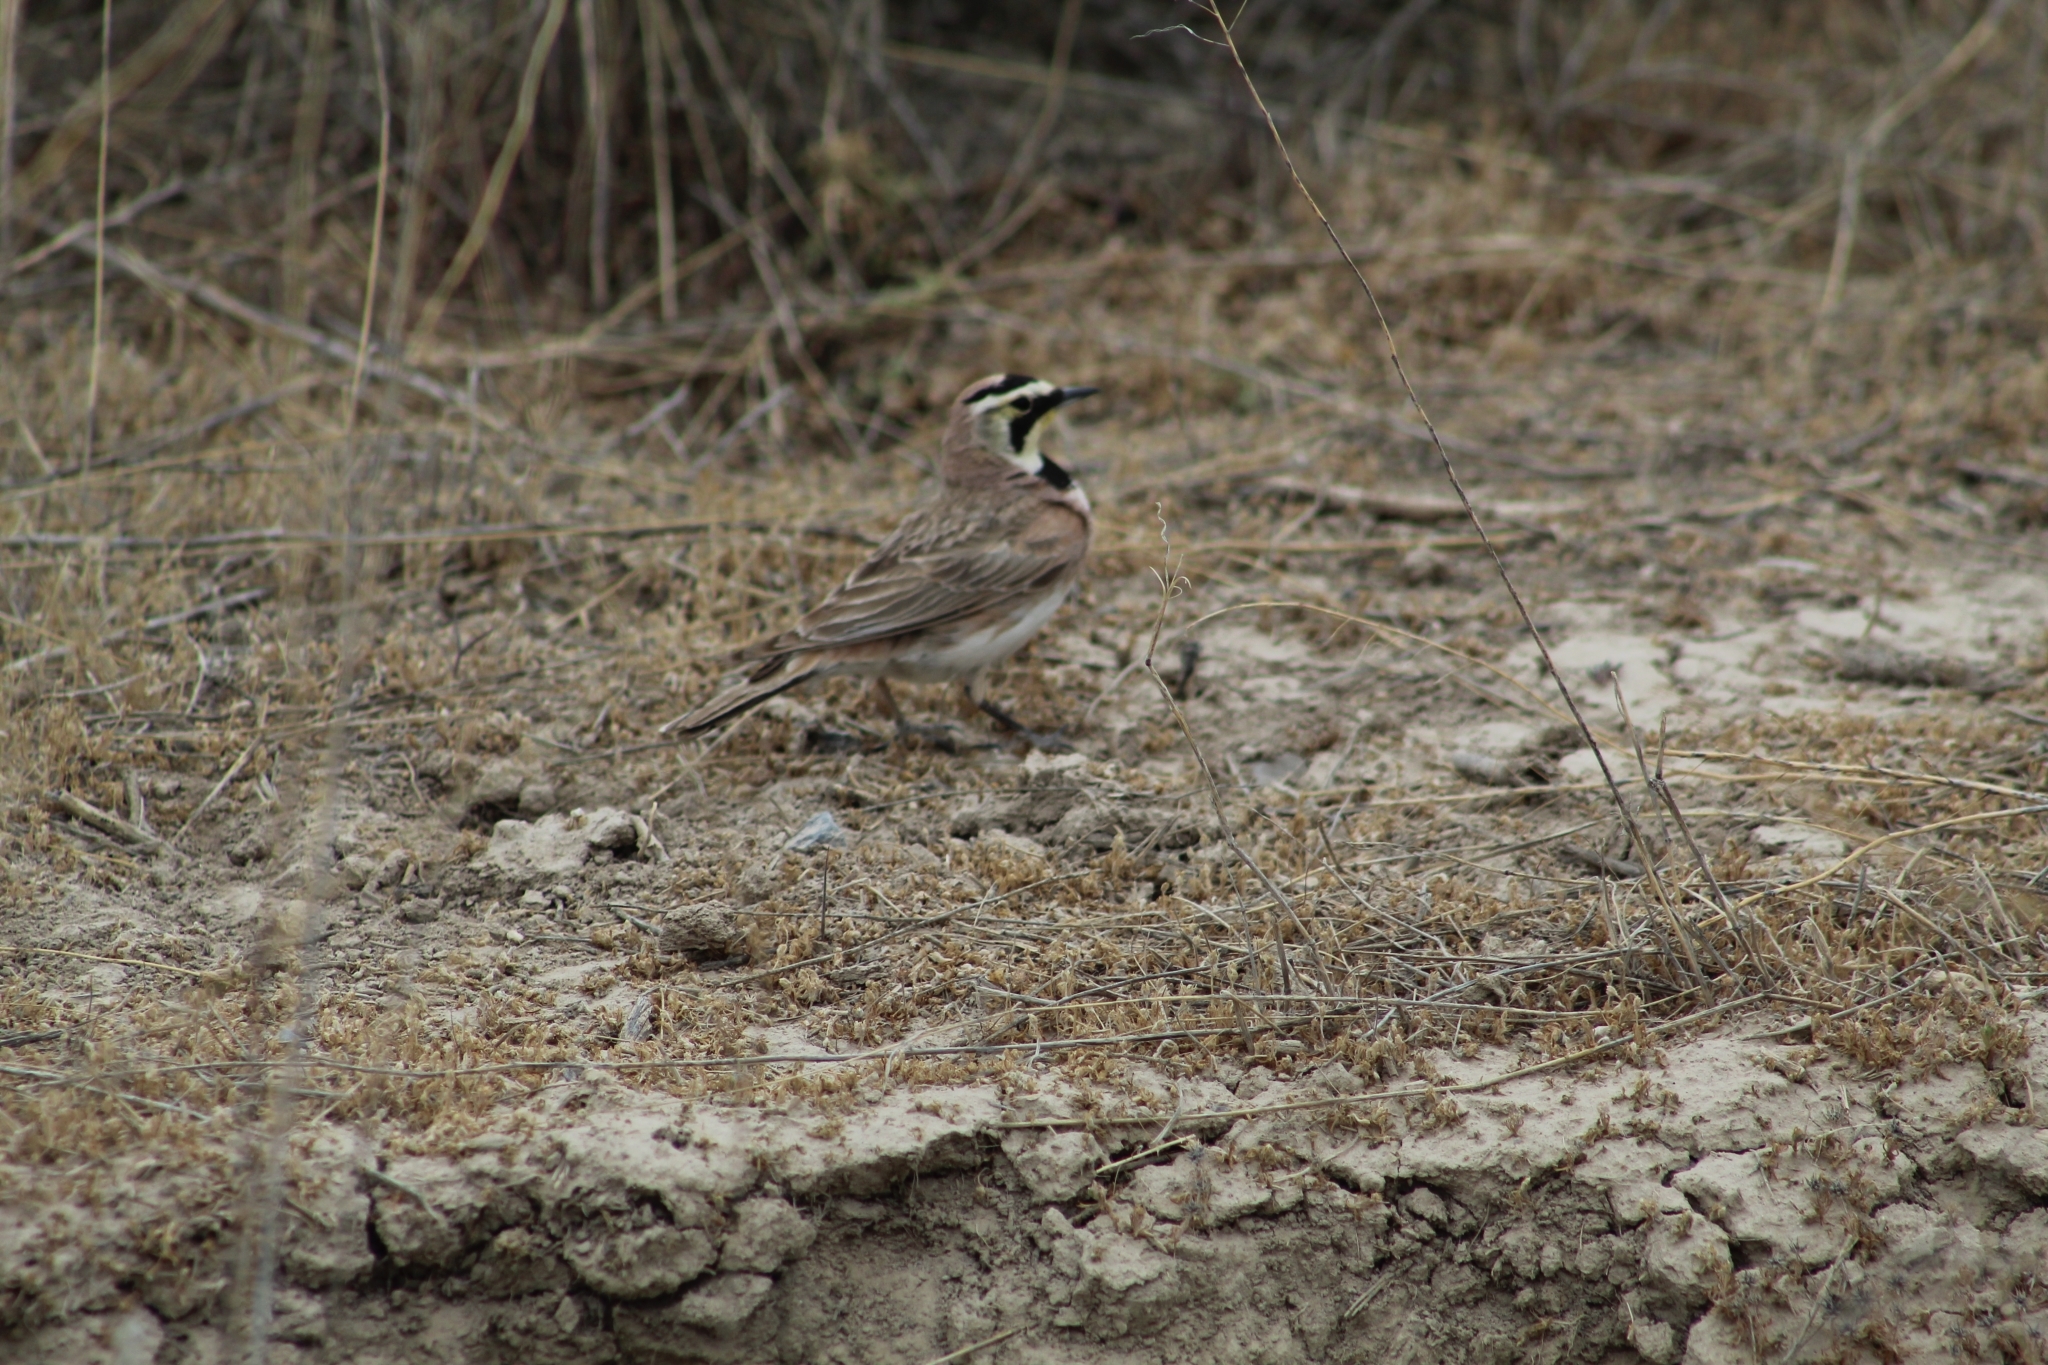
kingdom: Animalia
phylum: Chordata
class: Aves
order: Passeriformes
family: Alaudidae
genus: Eremophila
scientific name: Eremophila alpestris
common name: Horned lark
